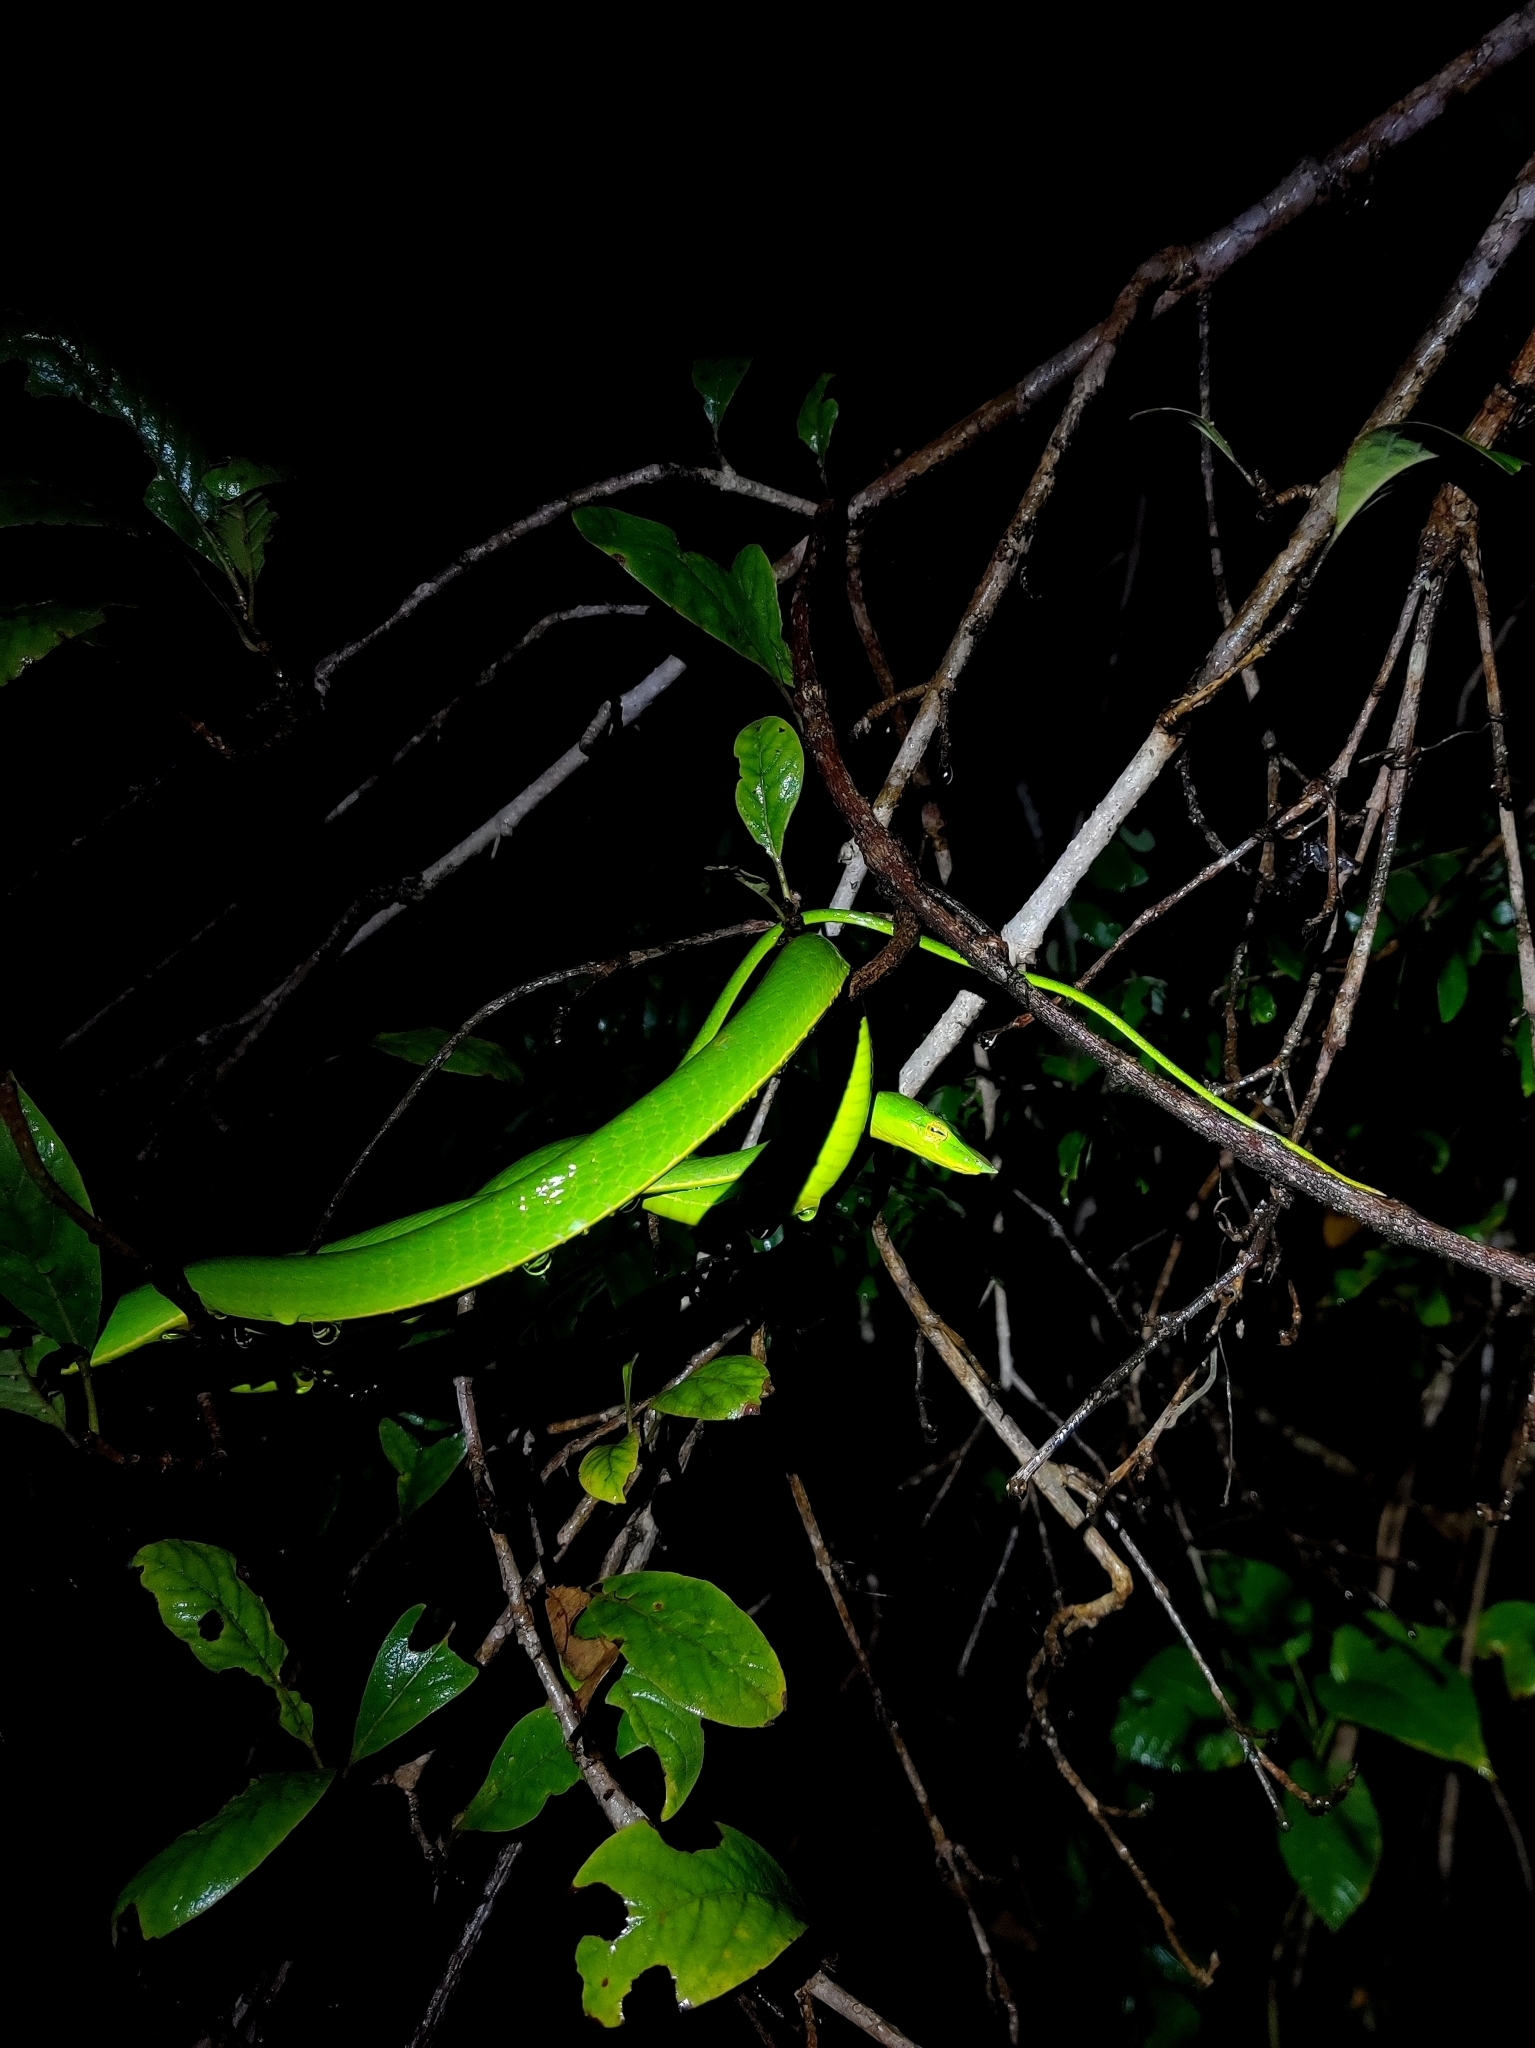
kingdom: Animalia
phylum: Chordata
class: Squamata
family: Colubridae
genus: Ahaetulla
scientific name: Ahaetulla borealis
